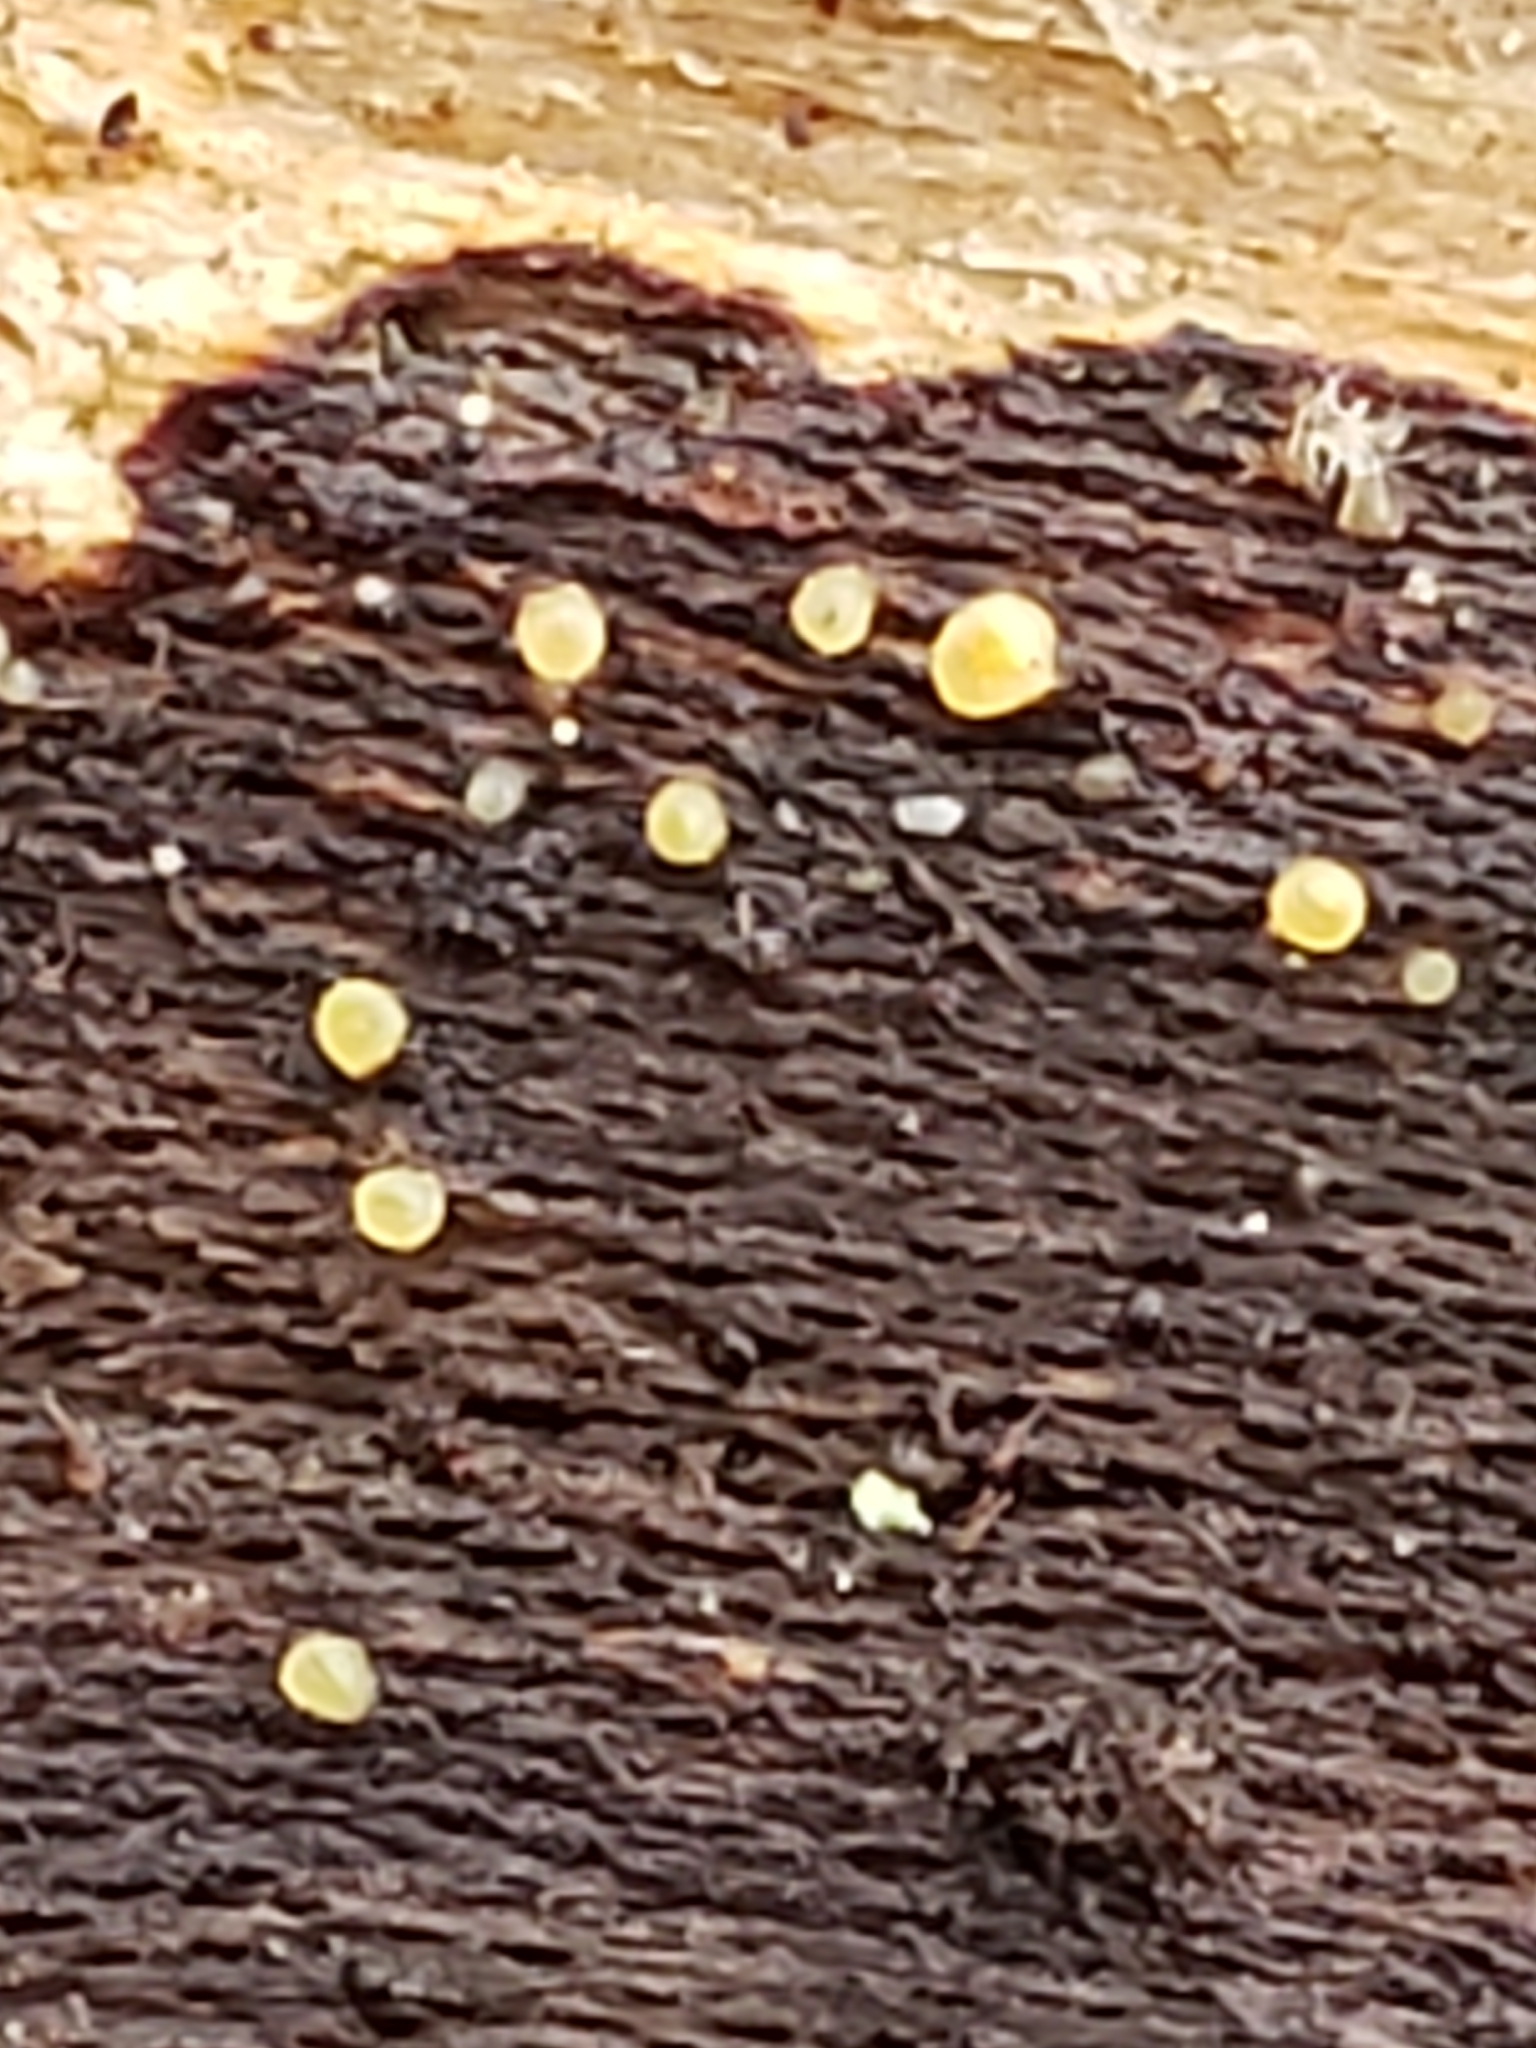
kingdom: Fungi
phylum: Basidiomycota
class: Dacrymycetes
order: Dacrymycetales
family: Dacrymycetaceae
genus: Dacrymyces
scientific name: Dacrymyces stillatus
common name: Common jelly spot
